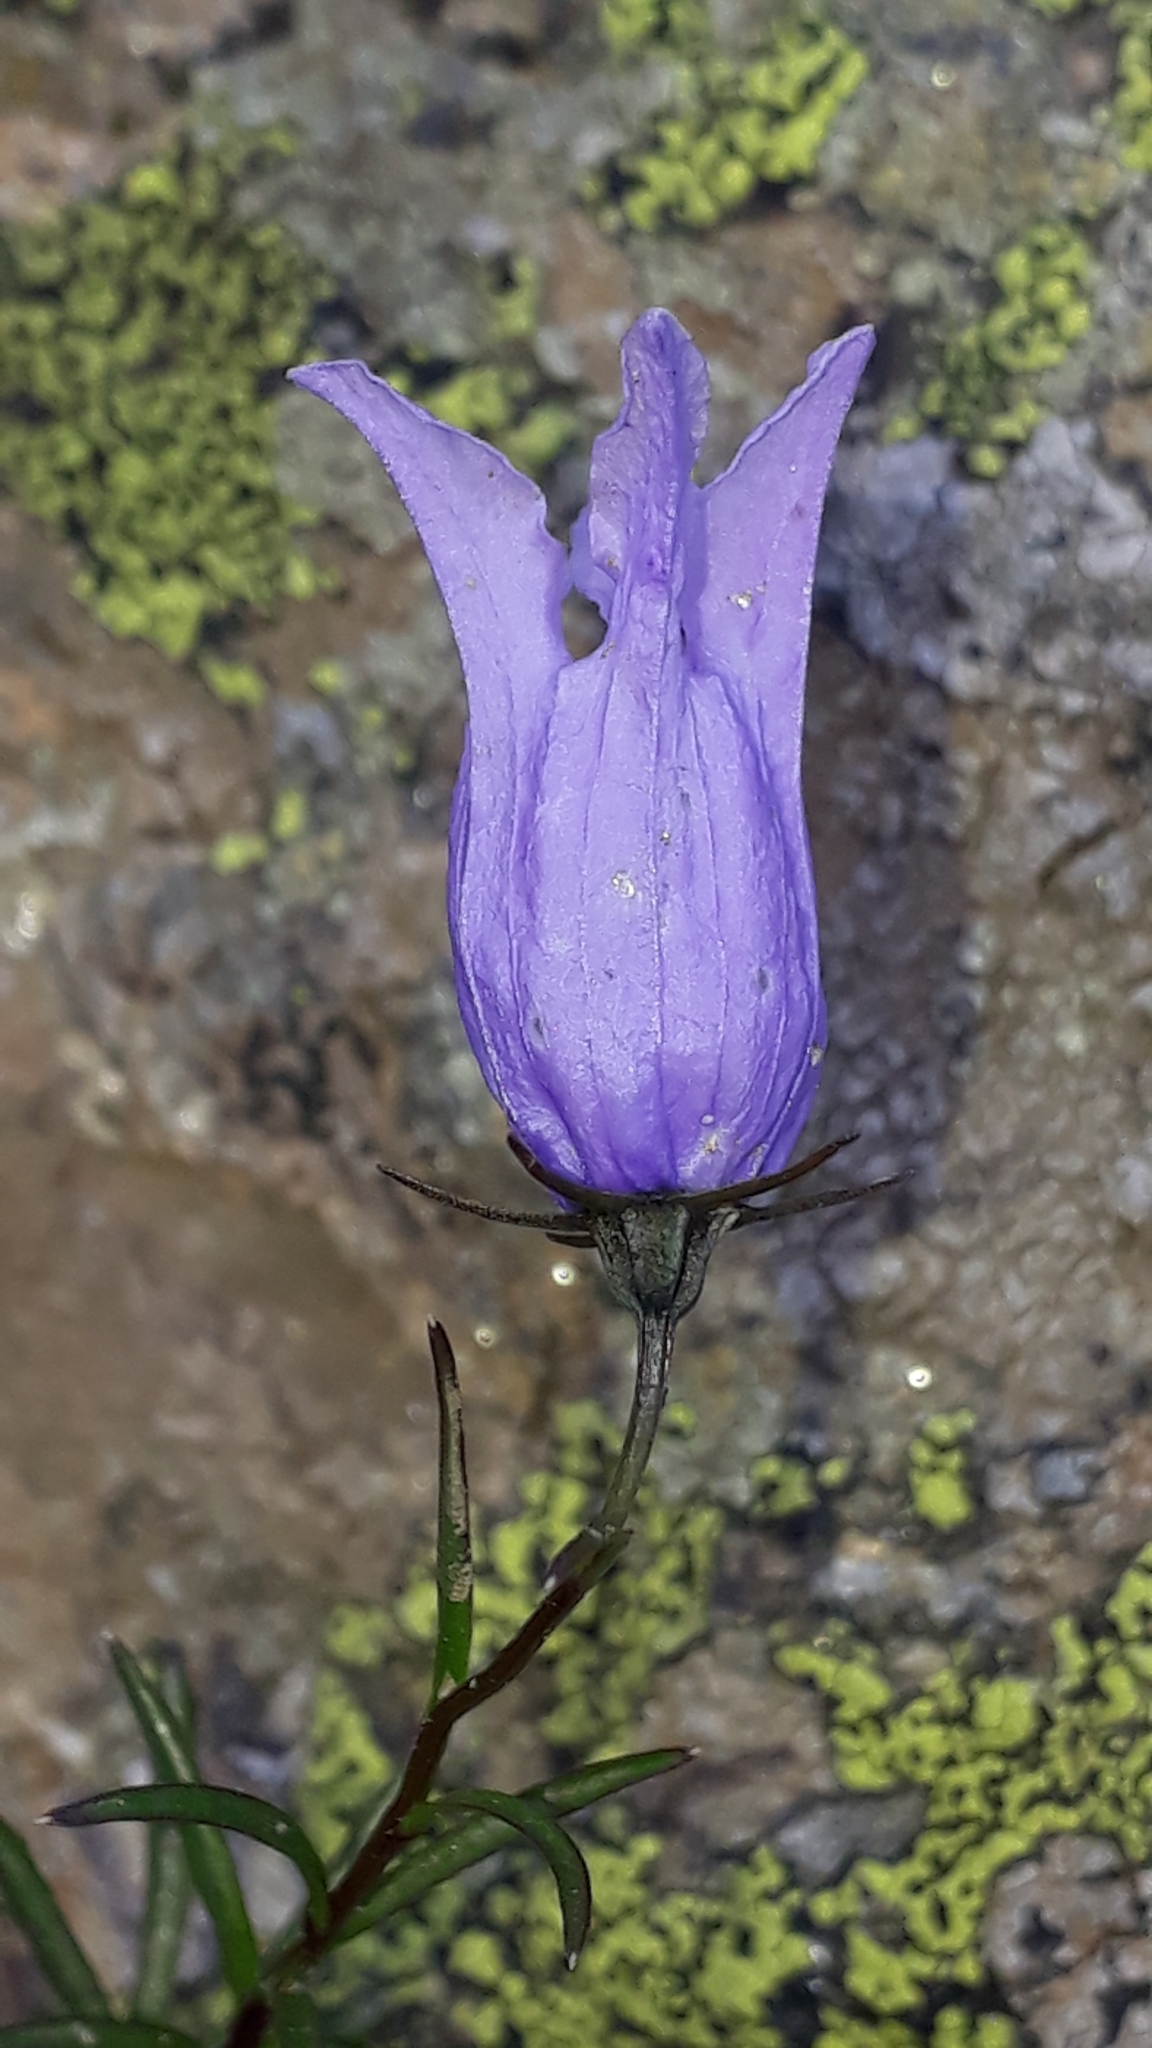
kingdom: Plantae
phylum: Tracheophyta
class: Magnoliopsida
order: Asterales
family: Campanulaceae
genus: Campanula
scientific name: Campanula excisa
